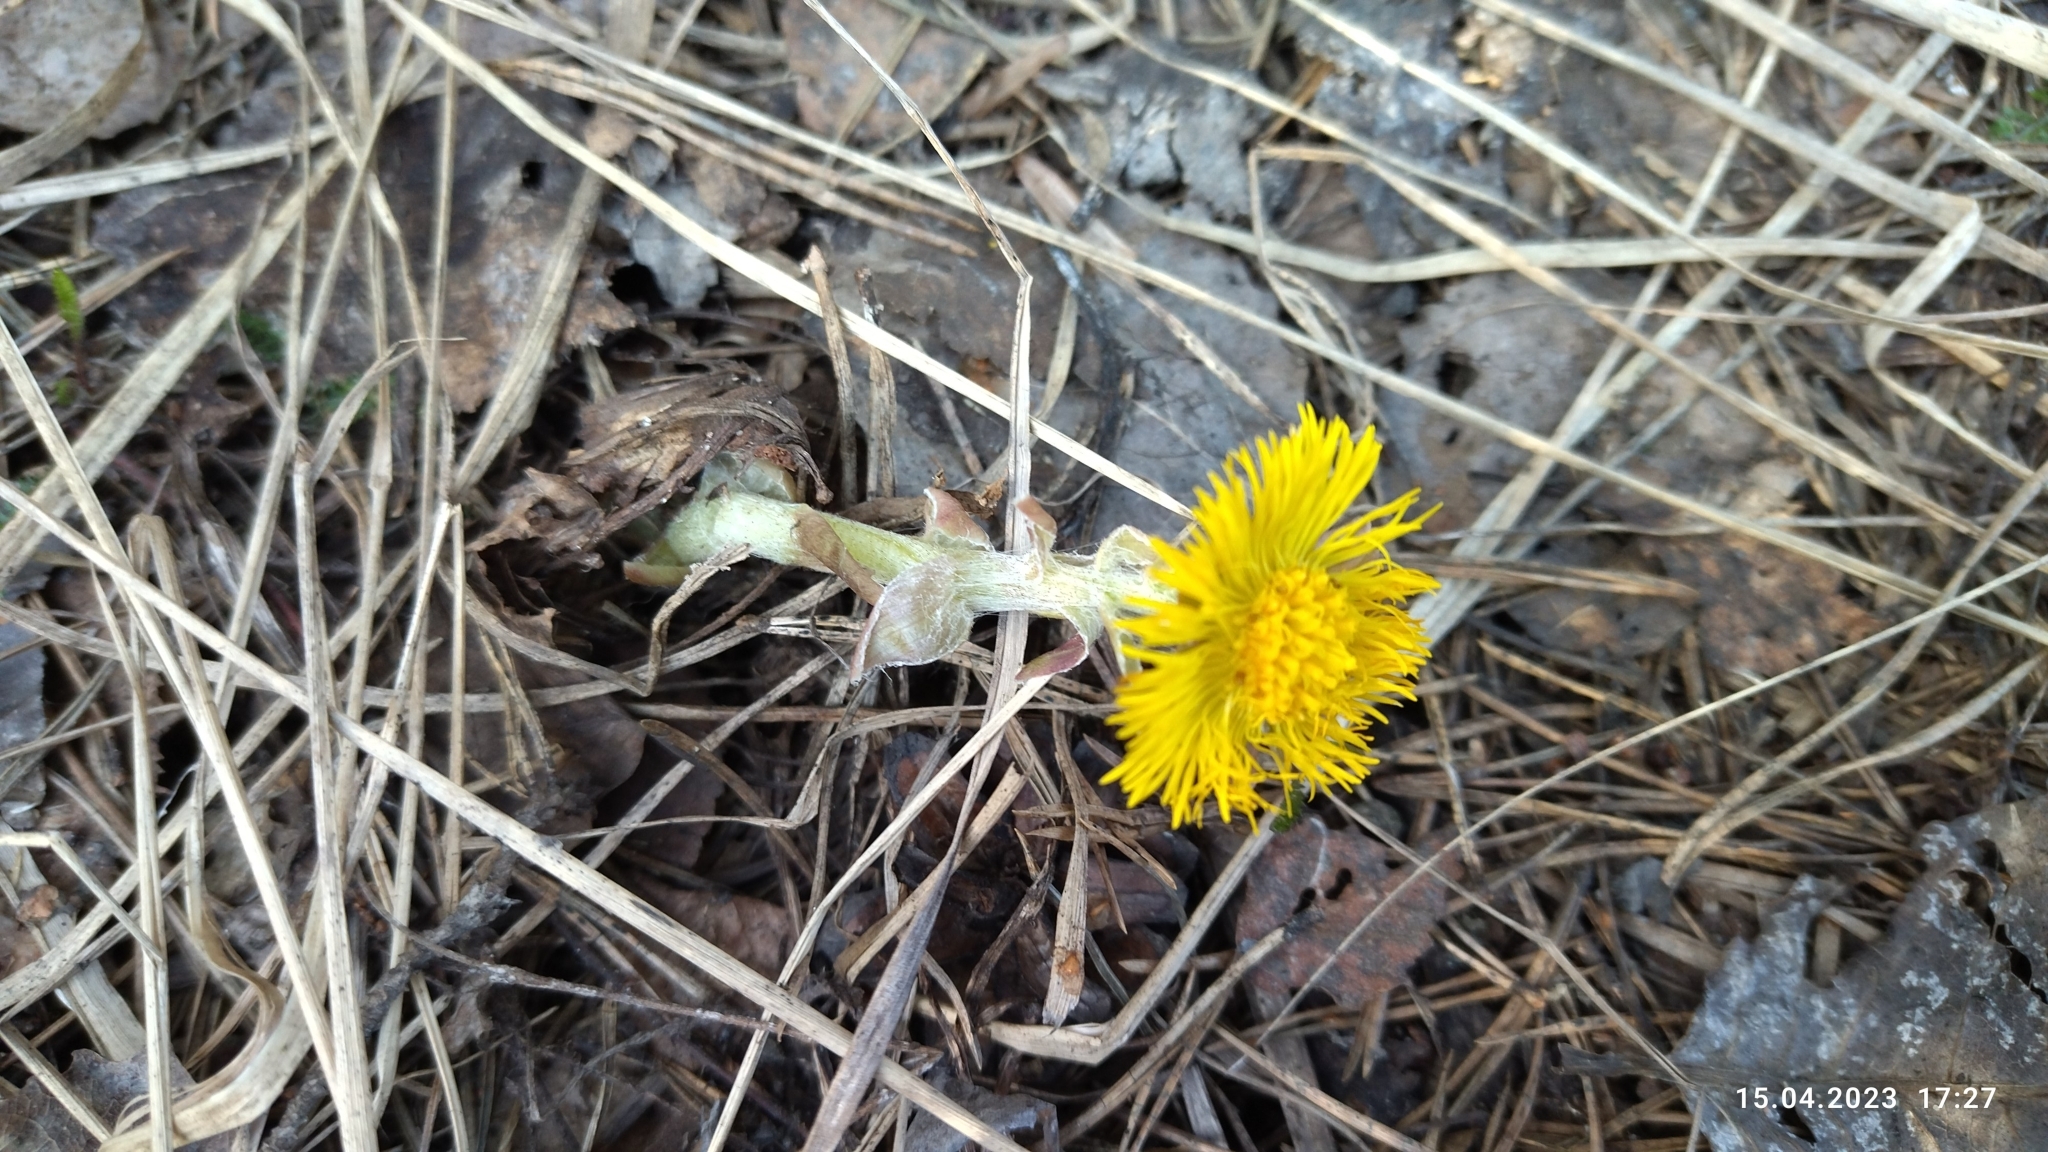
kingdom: Plantae
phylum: Tracheophyta
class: Magnoliopsida
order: Asterales
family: Asteraceae
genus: Tussilago
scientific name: Tussilago farfara
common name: Coltsfoot
